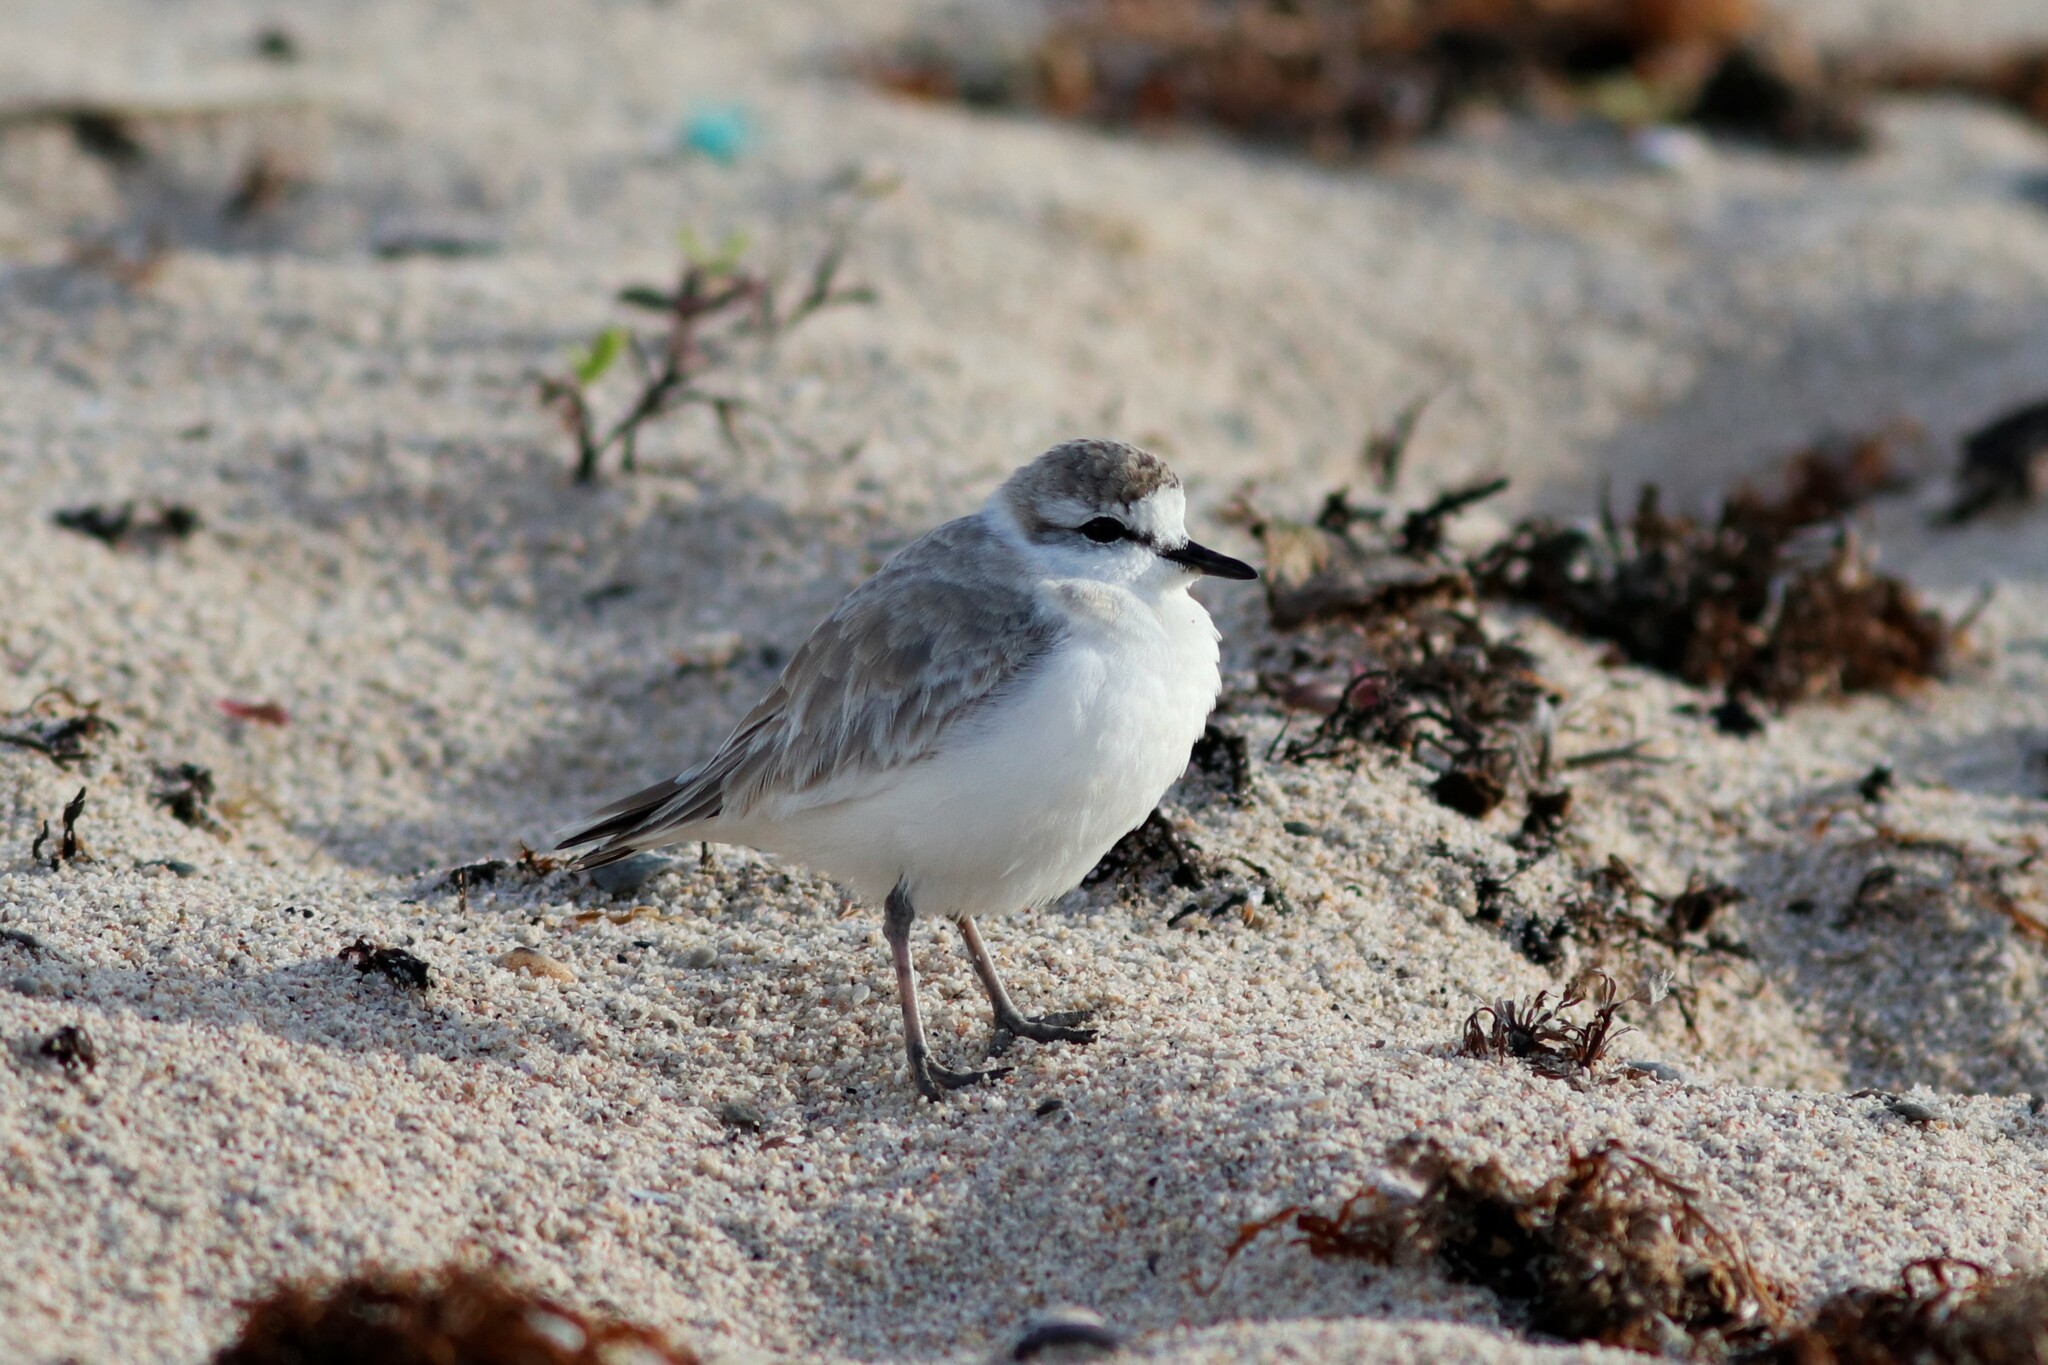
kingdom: Animalia
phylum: Chordata
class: Aves
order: Charadriiformes
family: Charadriidae
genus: Anarhynchus
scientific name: Anarhynchus
